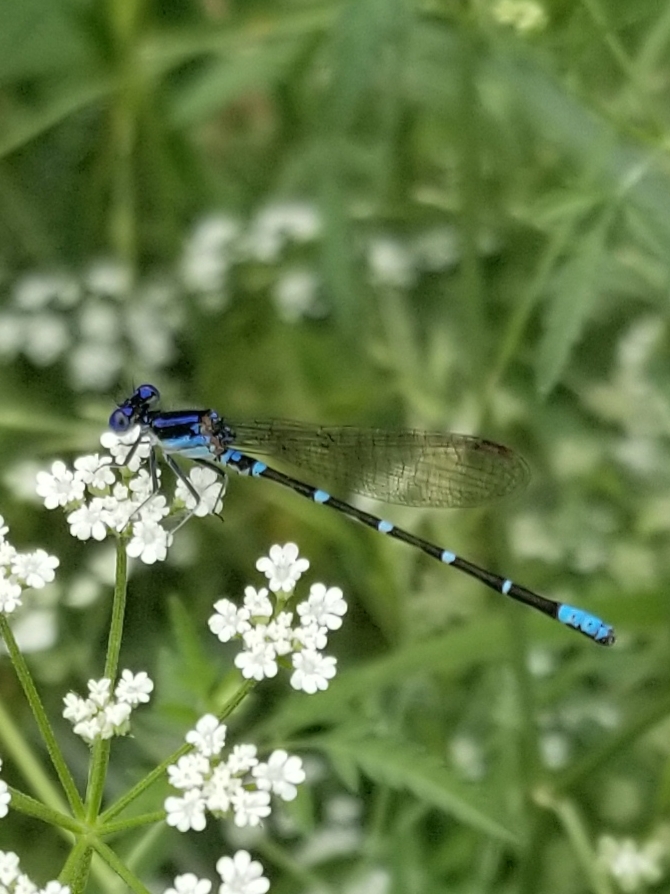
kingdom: Animalia
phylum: Arthropoda
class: Insecta
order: Odonata
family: Coenagrionidae
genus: Argia
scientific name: Argia sedula
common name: Blue-ringed dancer
